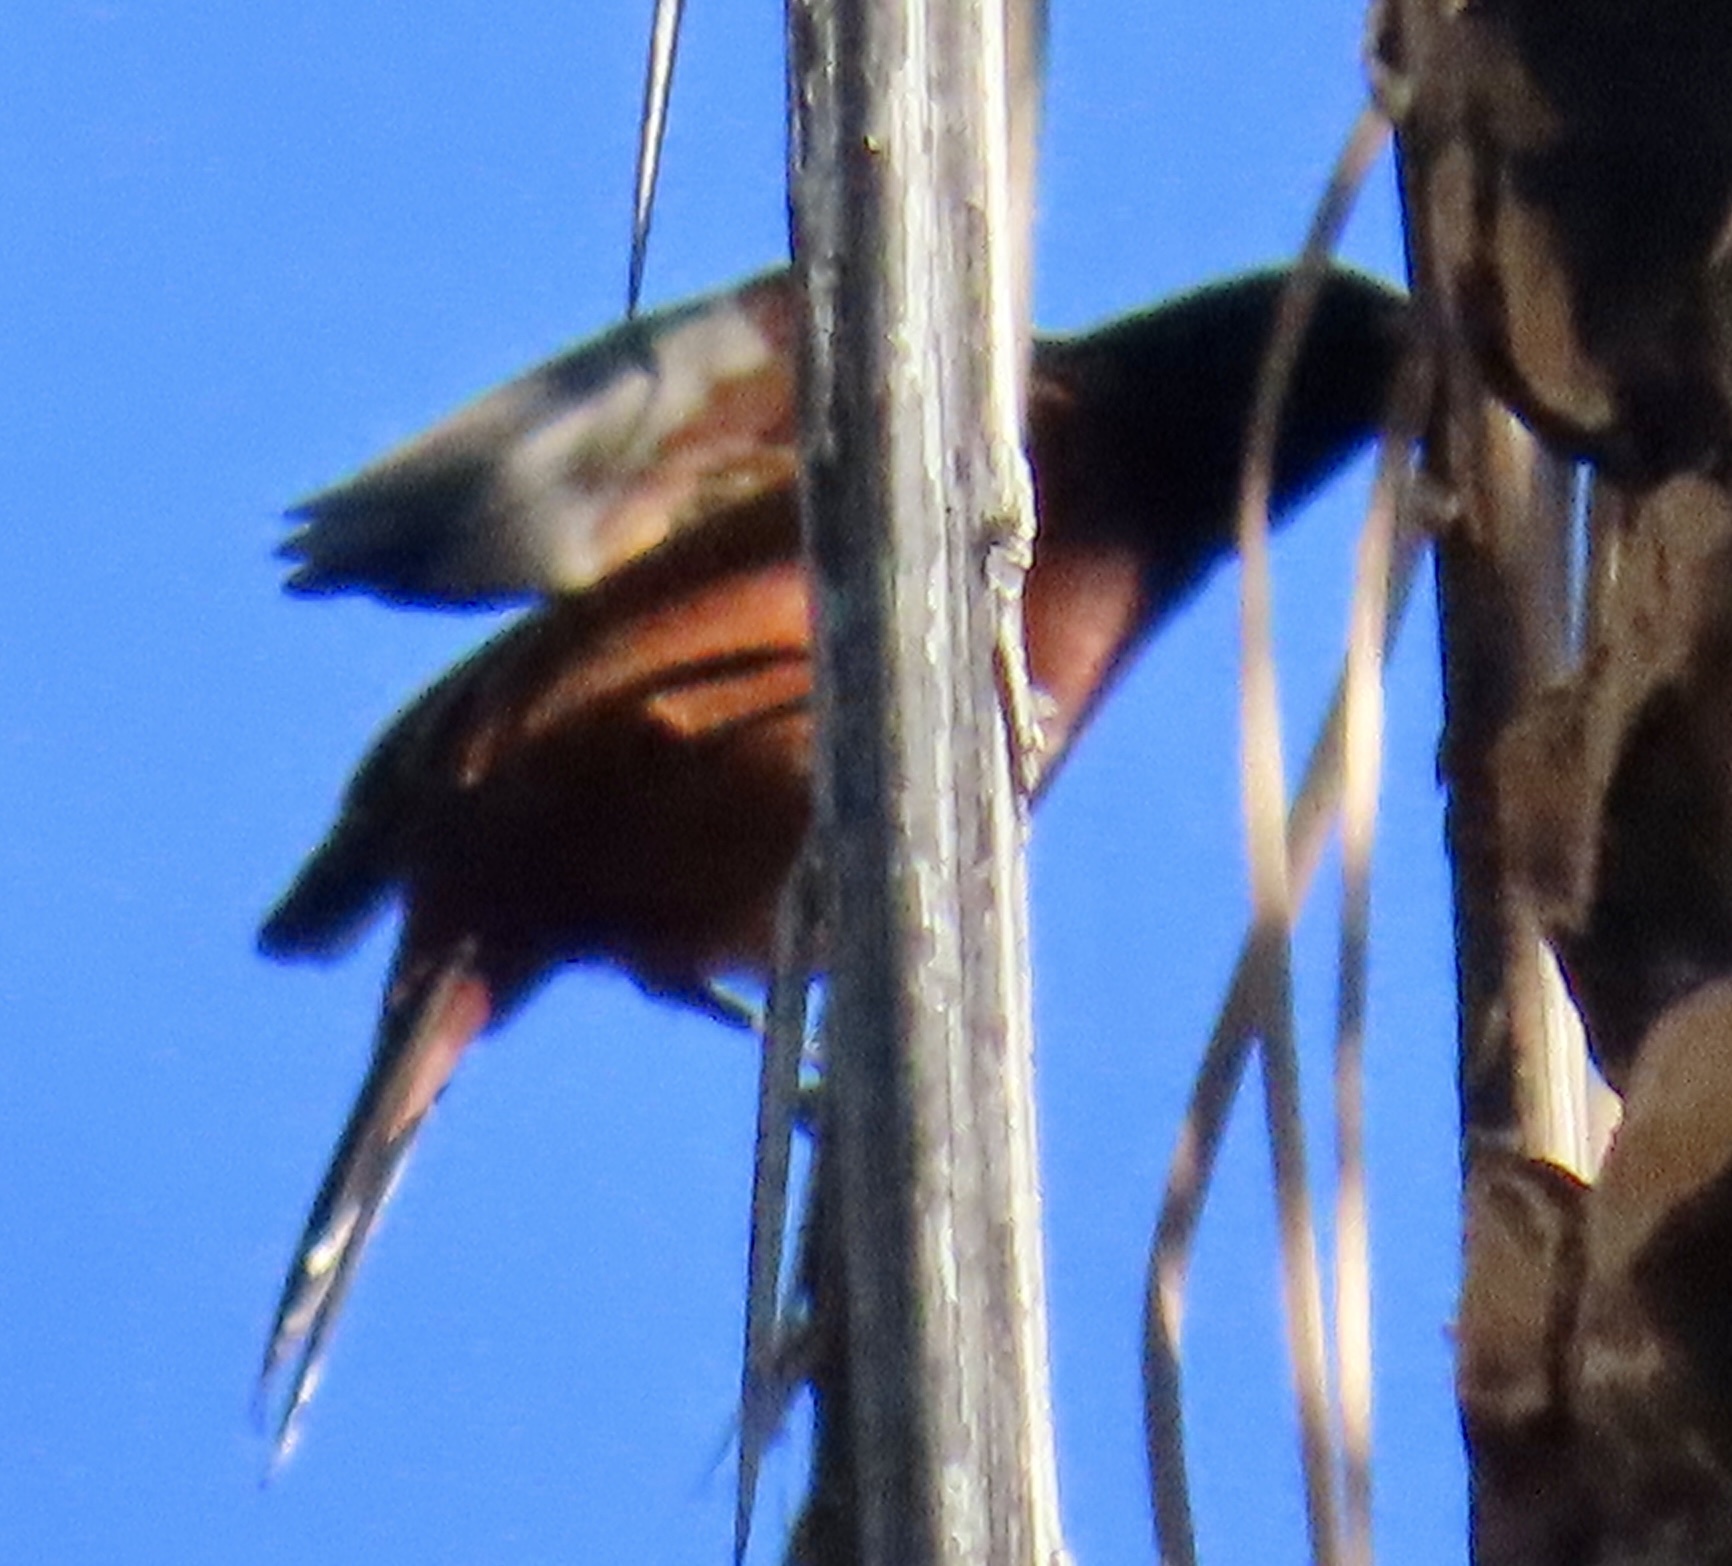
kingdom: Animalia
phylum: Chordata
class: Aves
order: Passeriformes
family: Icteridae
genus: Icterus
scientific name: Icterus spurius
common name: Orchard oriole
